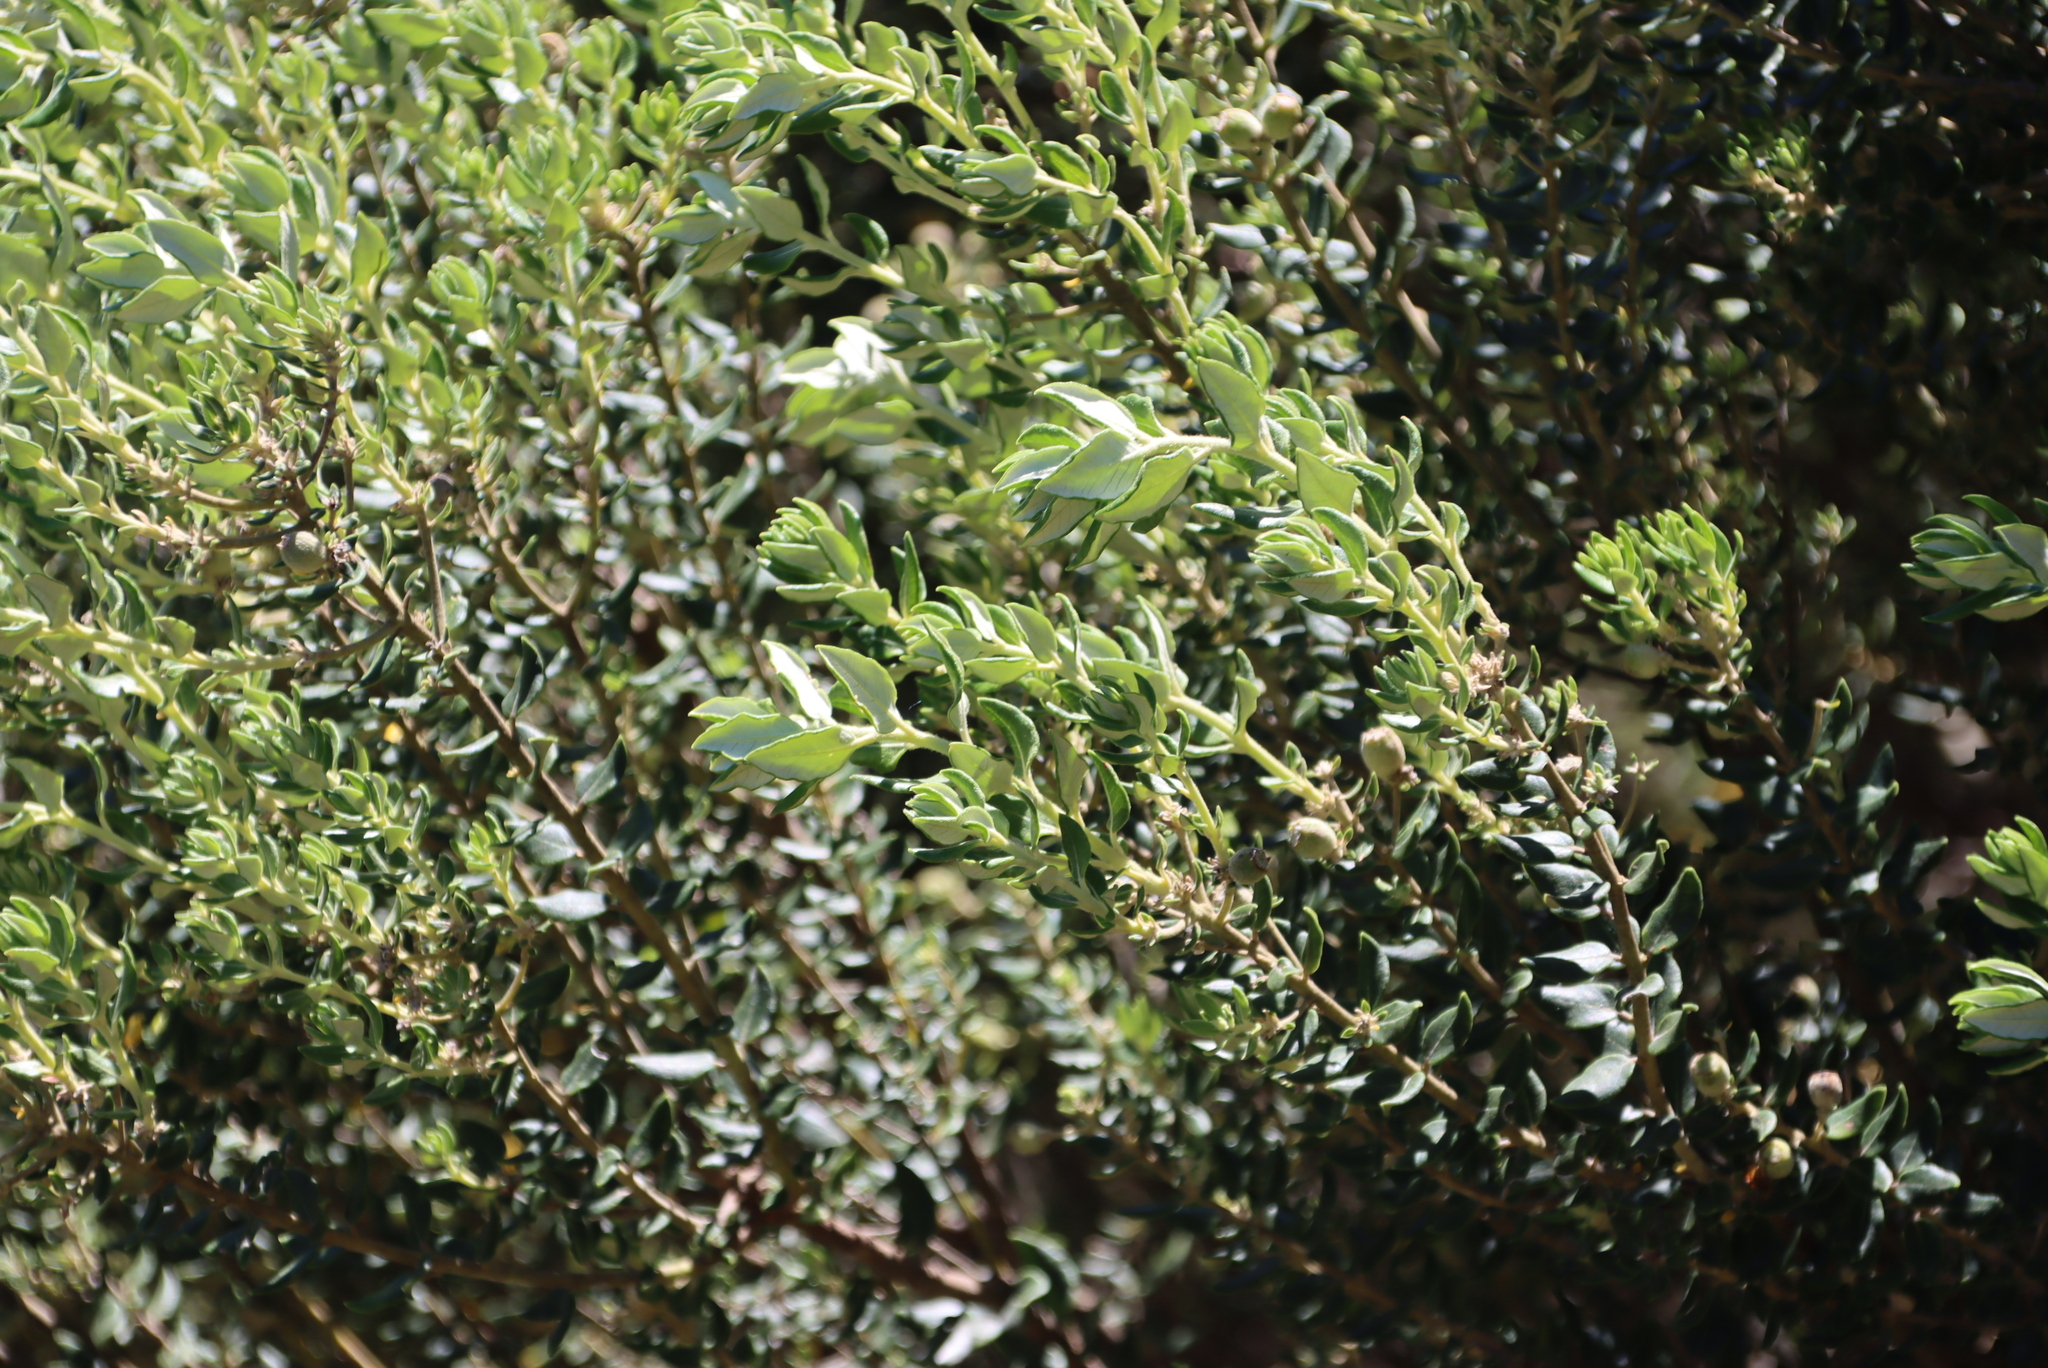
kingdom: Plantae
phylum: Tracheophyta
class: Magnoliopsida
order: Rosales
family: Rhamnaceae
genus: Phylica
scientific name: Phylica buxifolia
